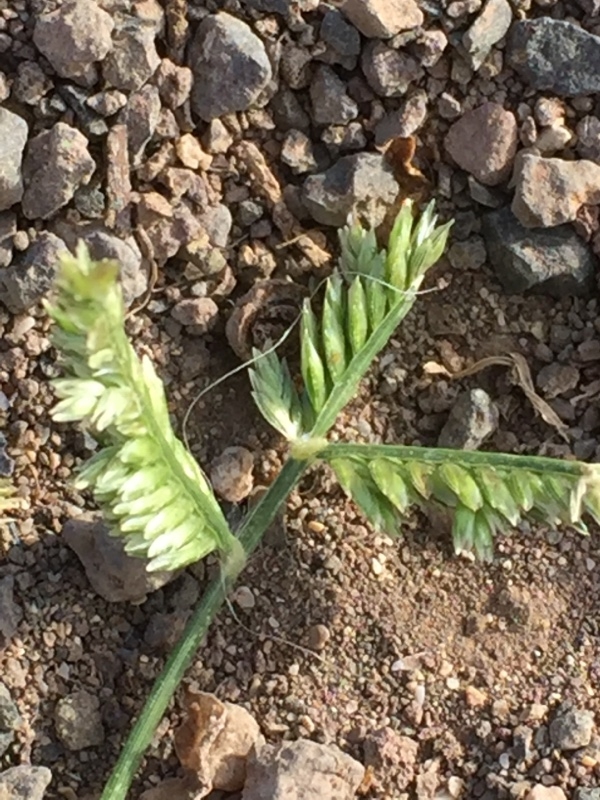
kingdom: Plantae
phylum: Tracheophyta
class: Liliopsida
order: Poales
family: Poaceae
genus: Eleusine
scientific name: Eleusine indica
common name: Yard-grass
